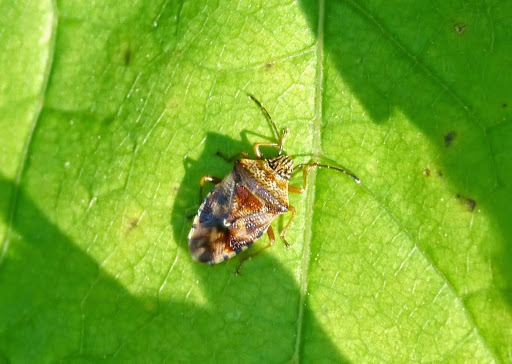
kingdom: Animalia
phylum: Arthropoda
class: Insecta
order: Hemiptera
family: Acanthosomatidae
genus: Elasmucha
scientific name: Elasmucha lateralis
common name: Shield bug
